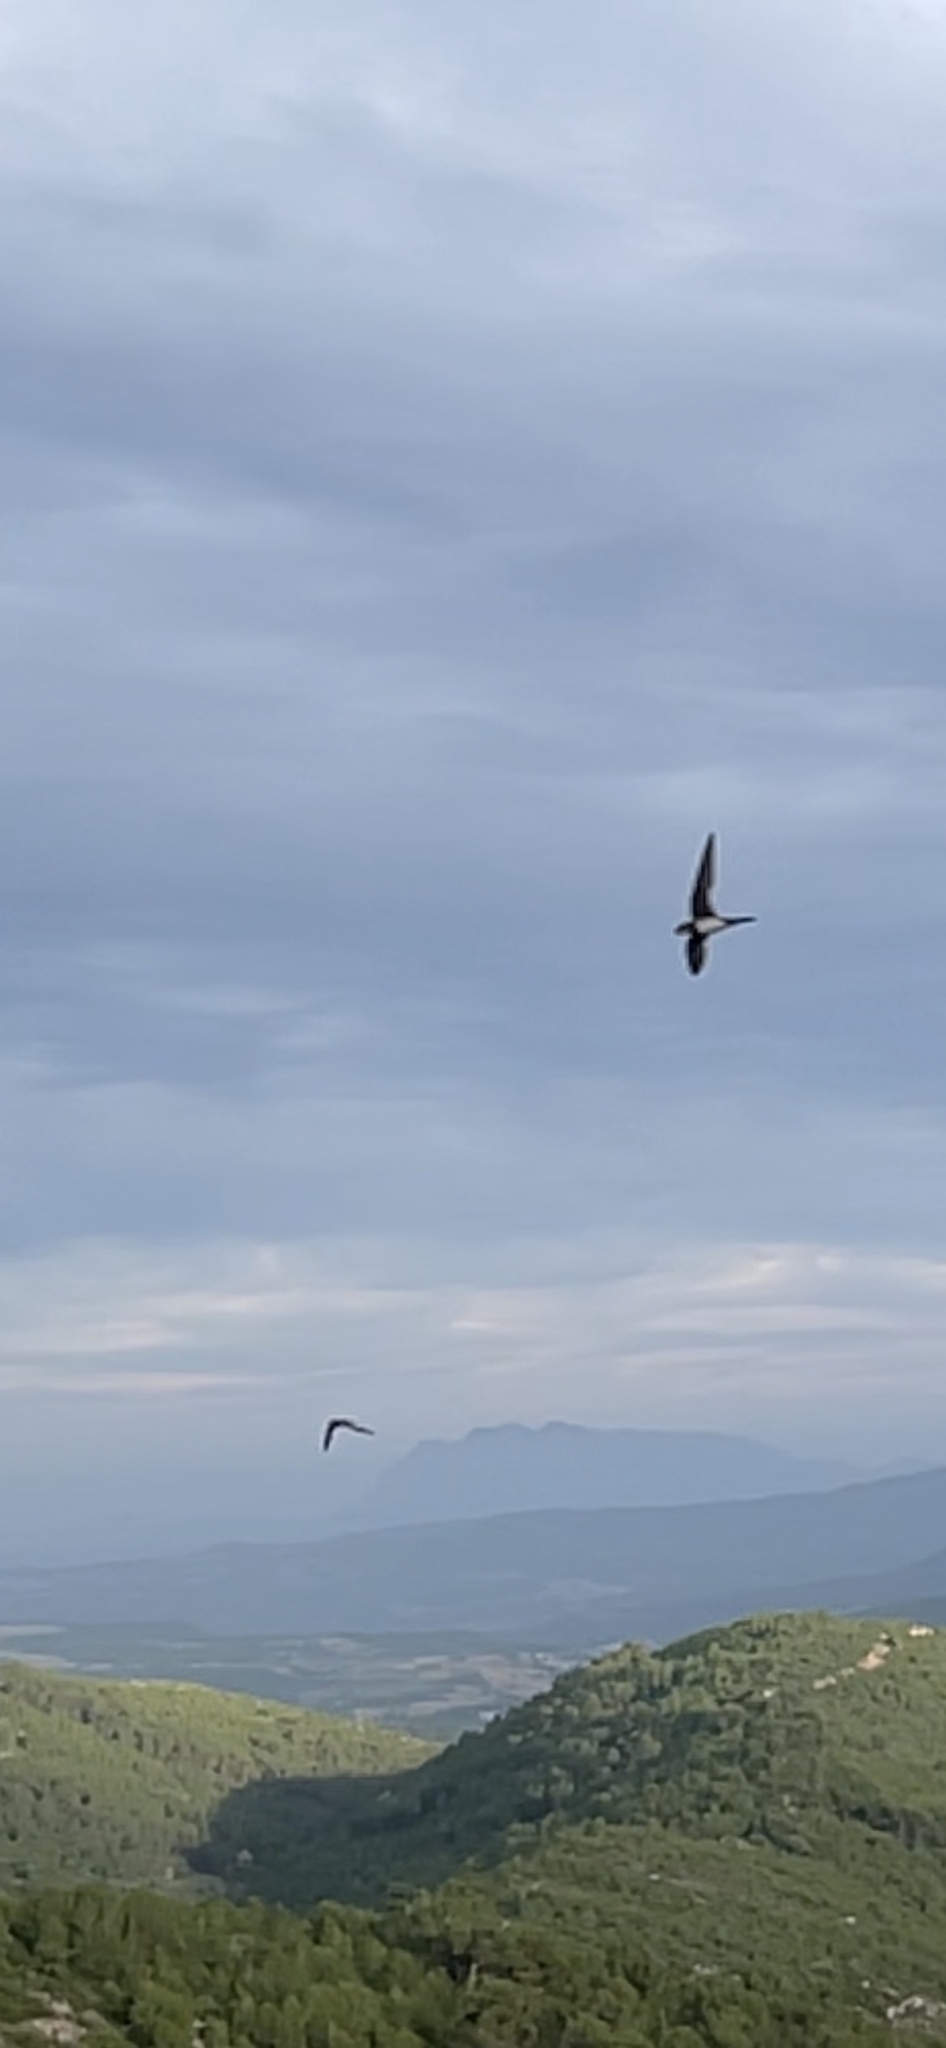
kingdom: Animalia
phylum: Chordata
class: Aves
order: Apodiformes
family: Apodidae
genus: Tachymarptis
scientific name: Tachymarptis melba
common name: Alpine swift
